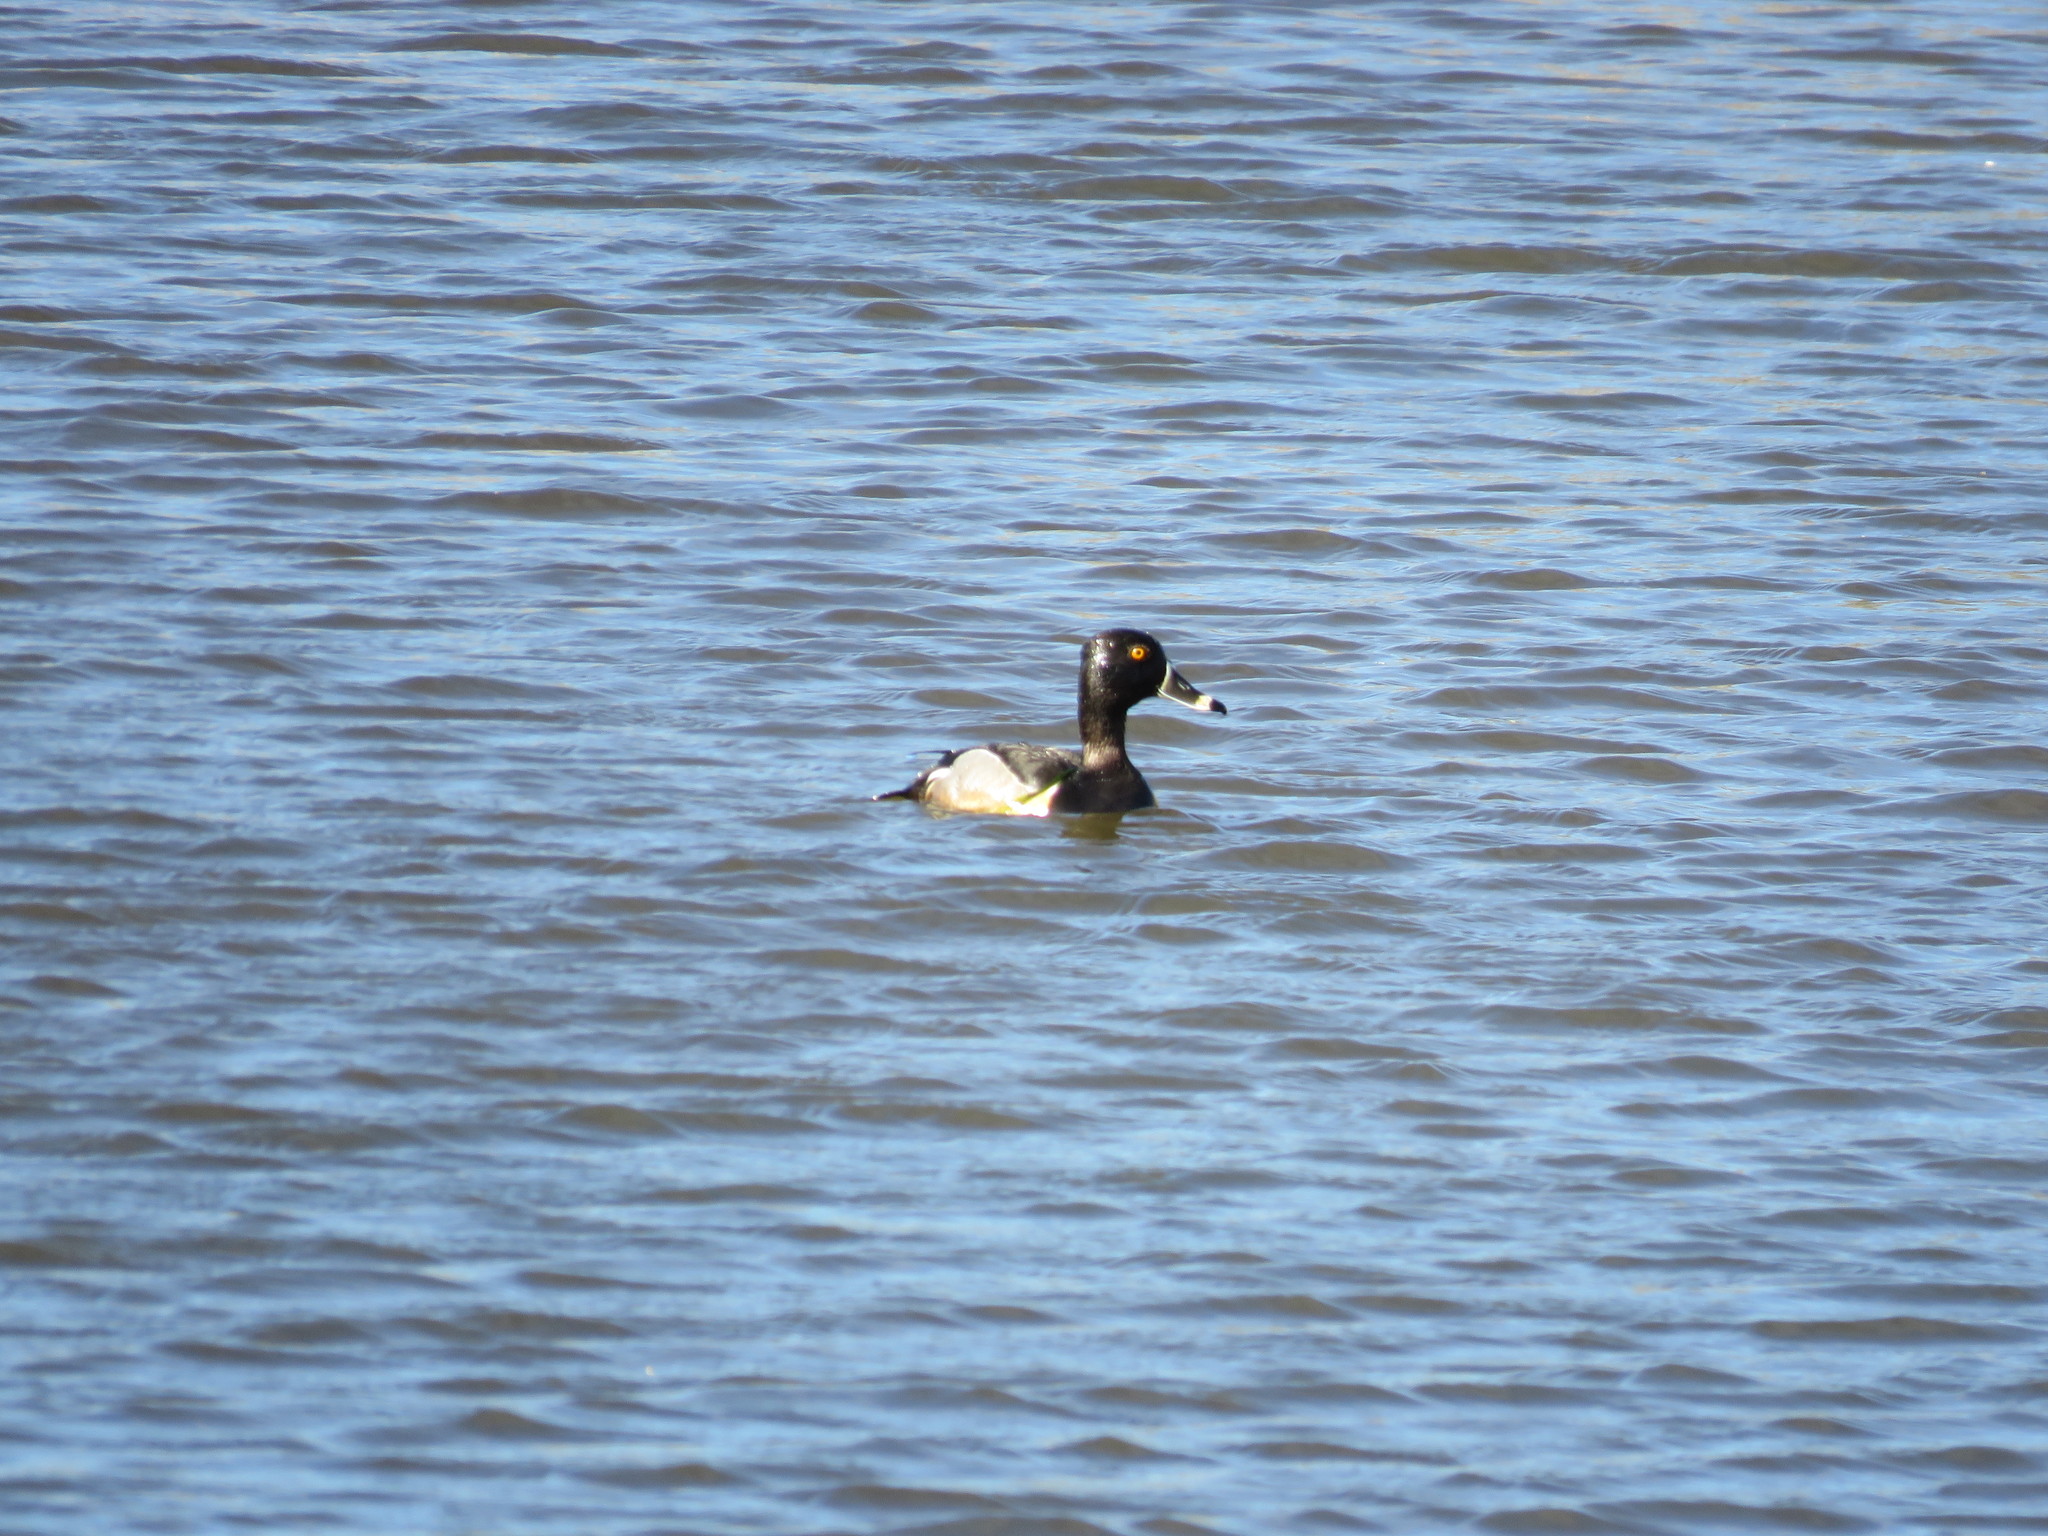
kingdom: Animalia
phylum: Chordata
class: Aves
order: Anseriformes
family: Anatidae
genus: Aythya
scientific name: Aythya collaris
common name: Ring-necked duck
